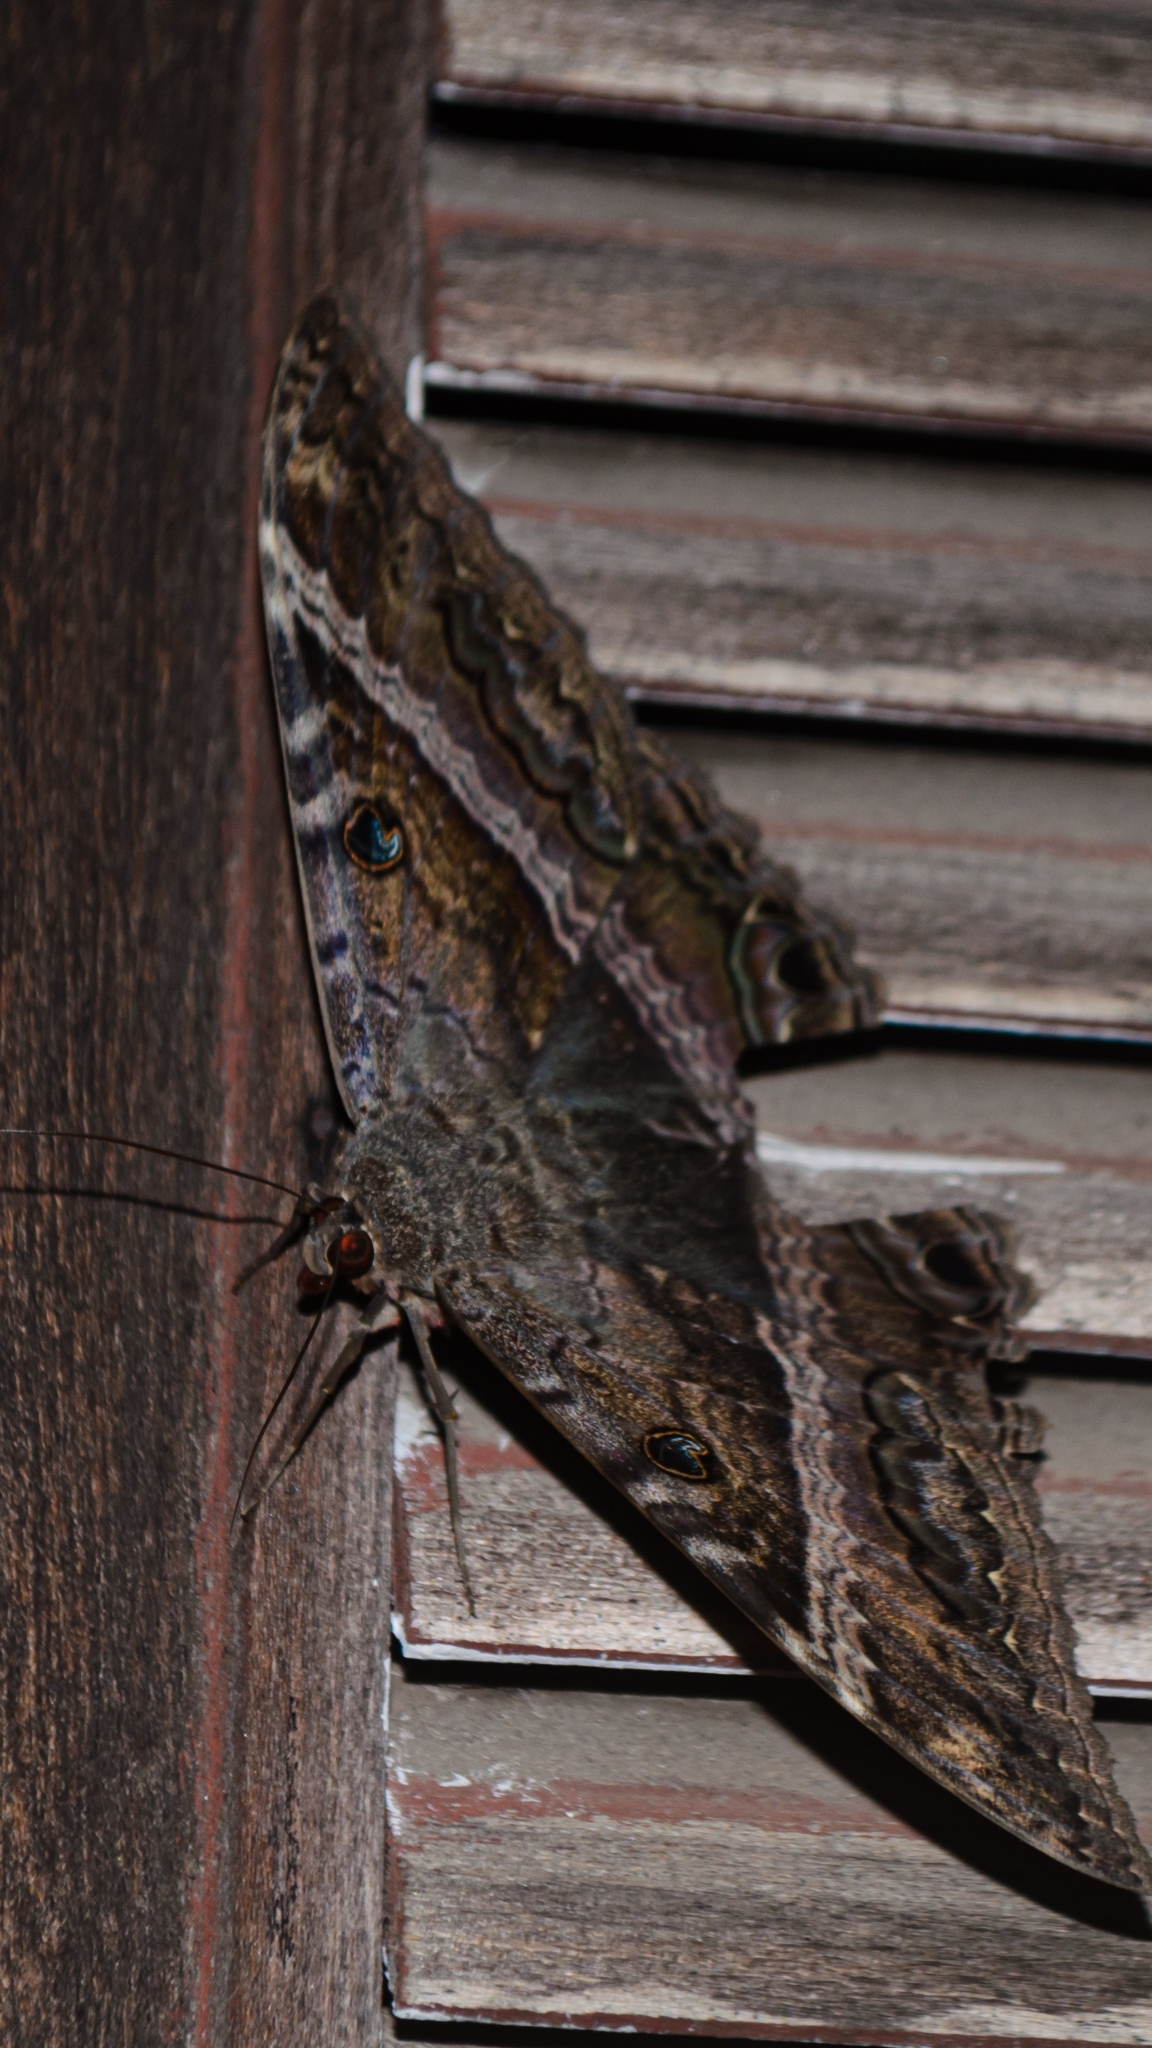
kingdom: Animalia
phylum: Arthropoda
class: Insecta
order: Lepidoptera
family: Erebidae
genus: Ascalapha
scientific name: Ascalapha odorata
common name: Black witch
